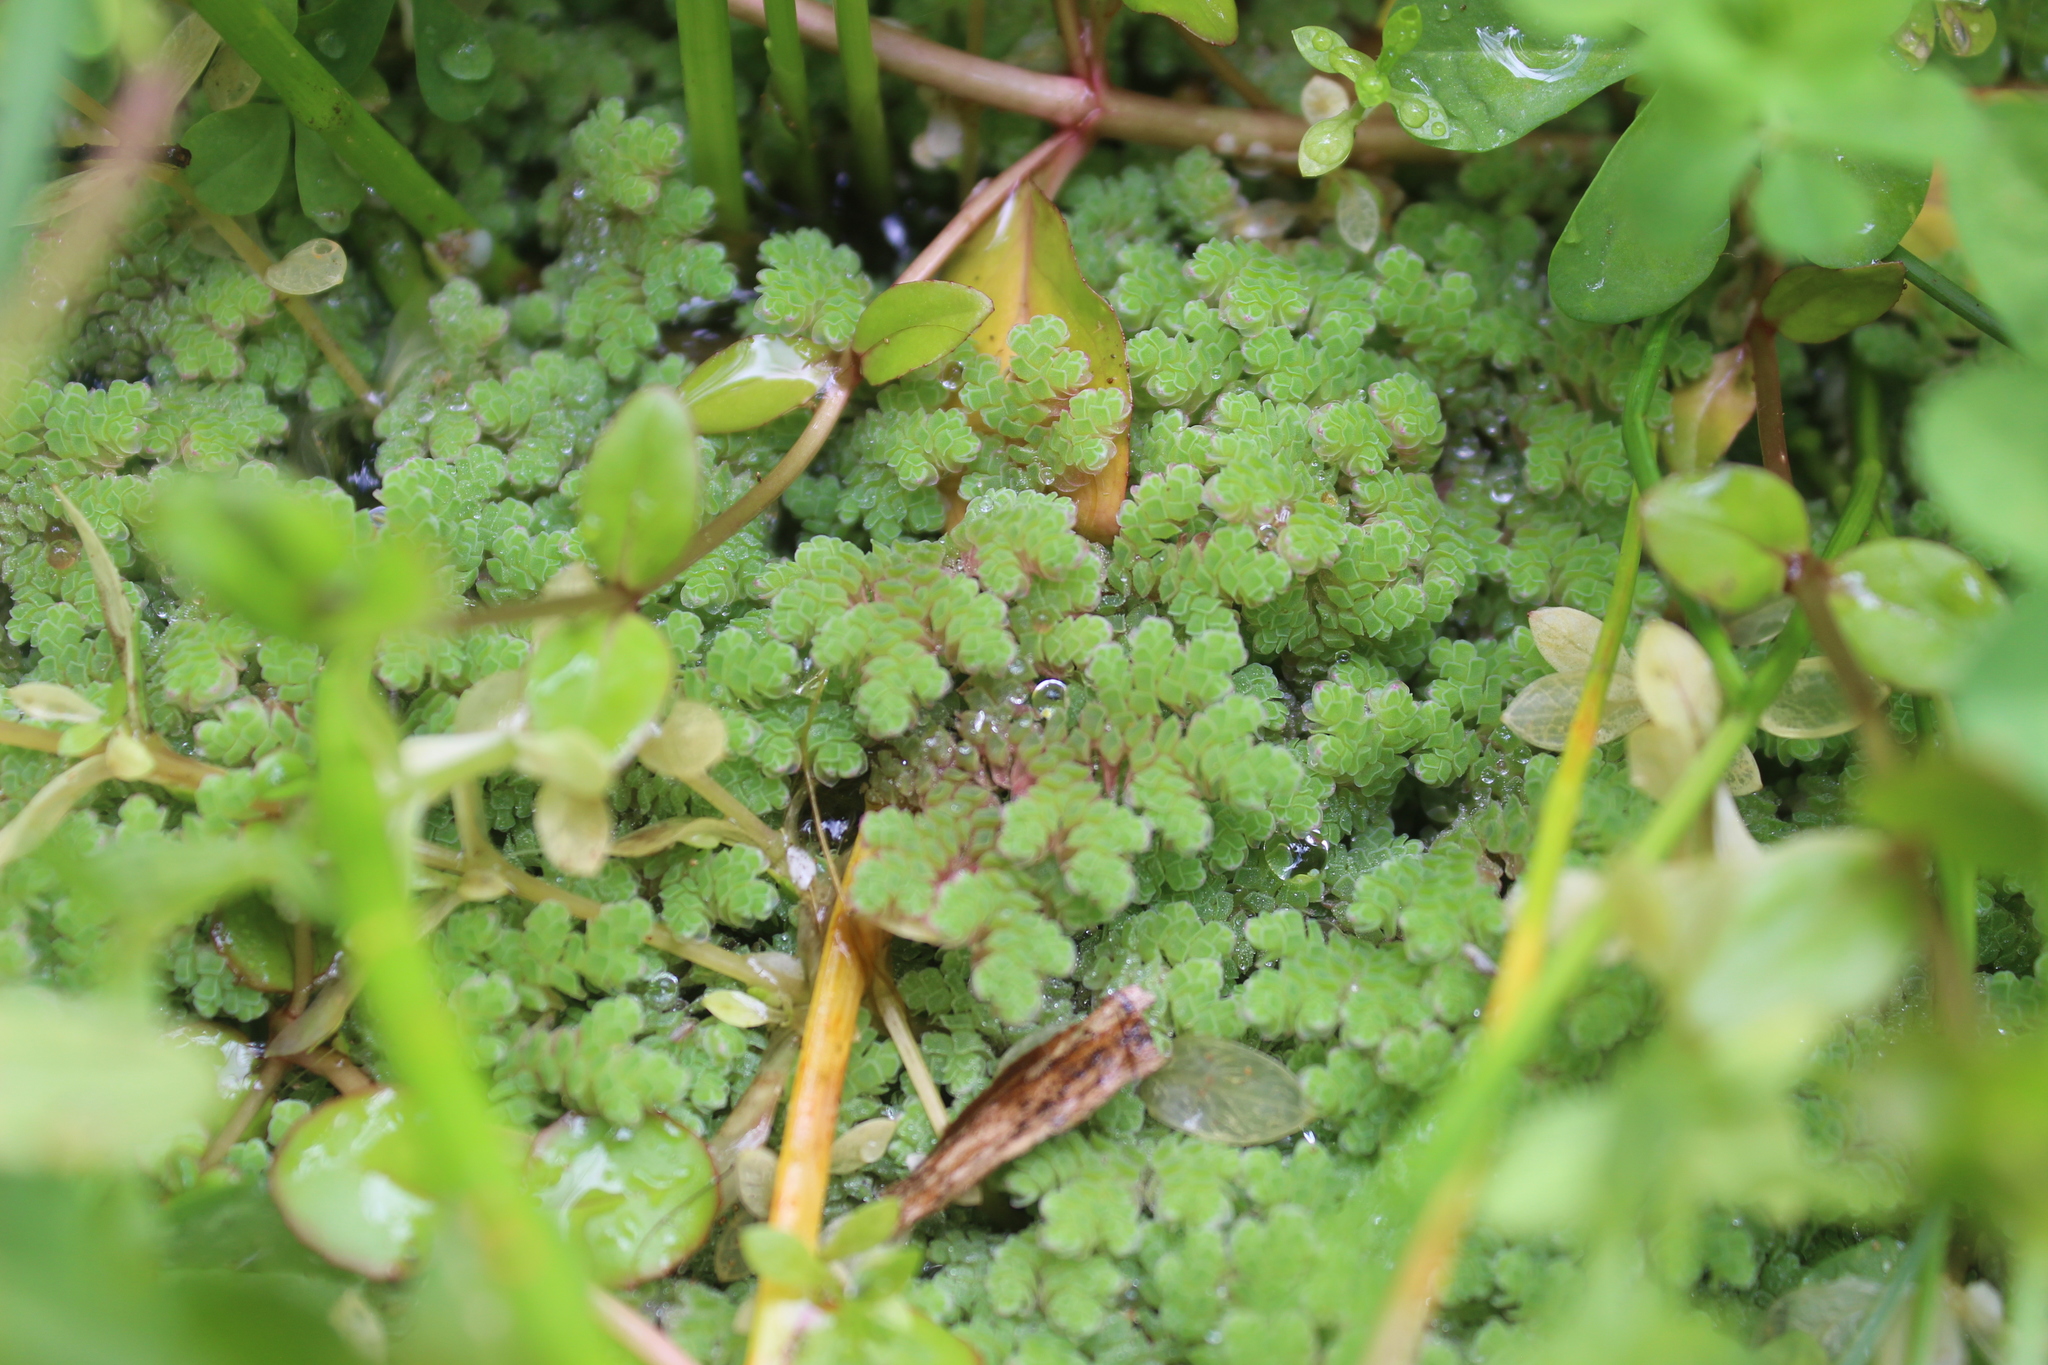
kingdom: Plantae
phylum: Tracheophyta
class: Polypodiopsida
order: Salviniales
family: Salviniaceae
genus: Azolla
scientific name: Azolla rubra
